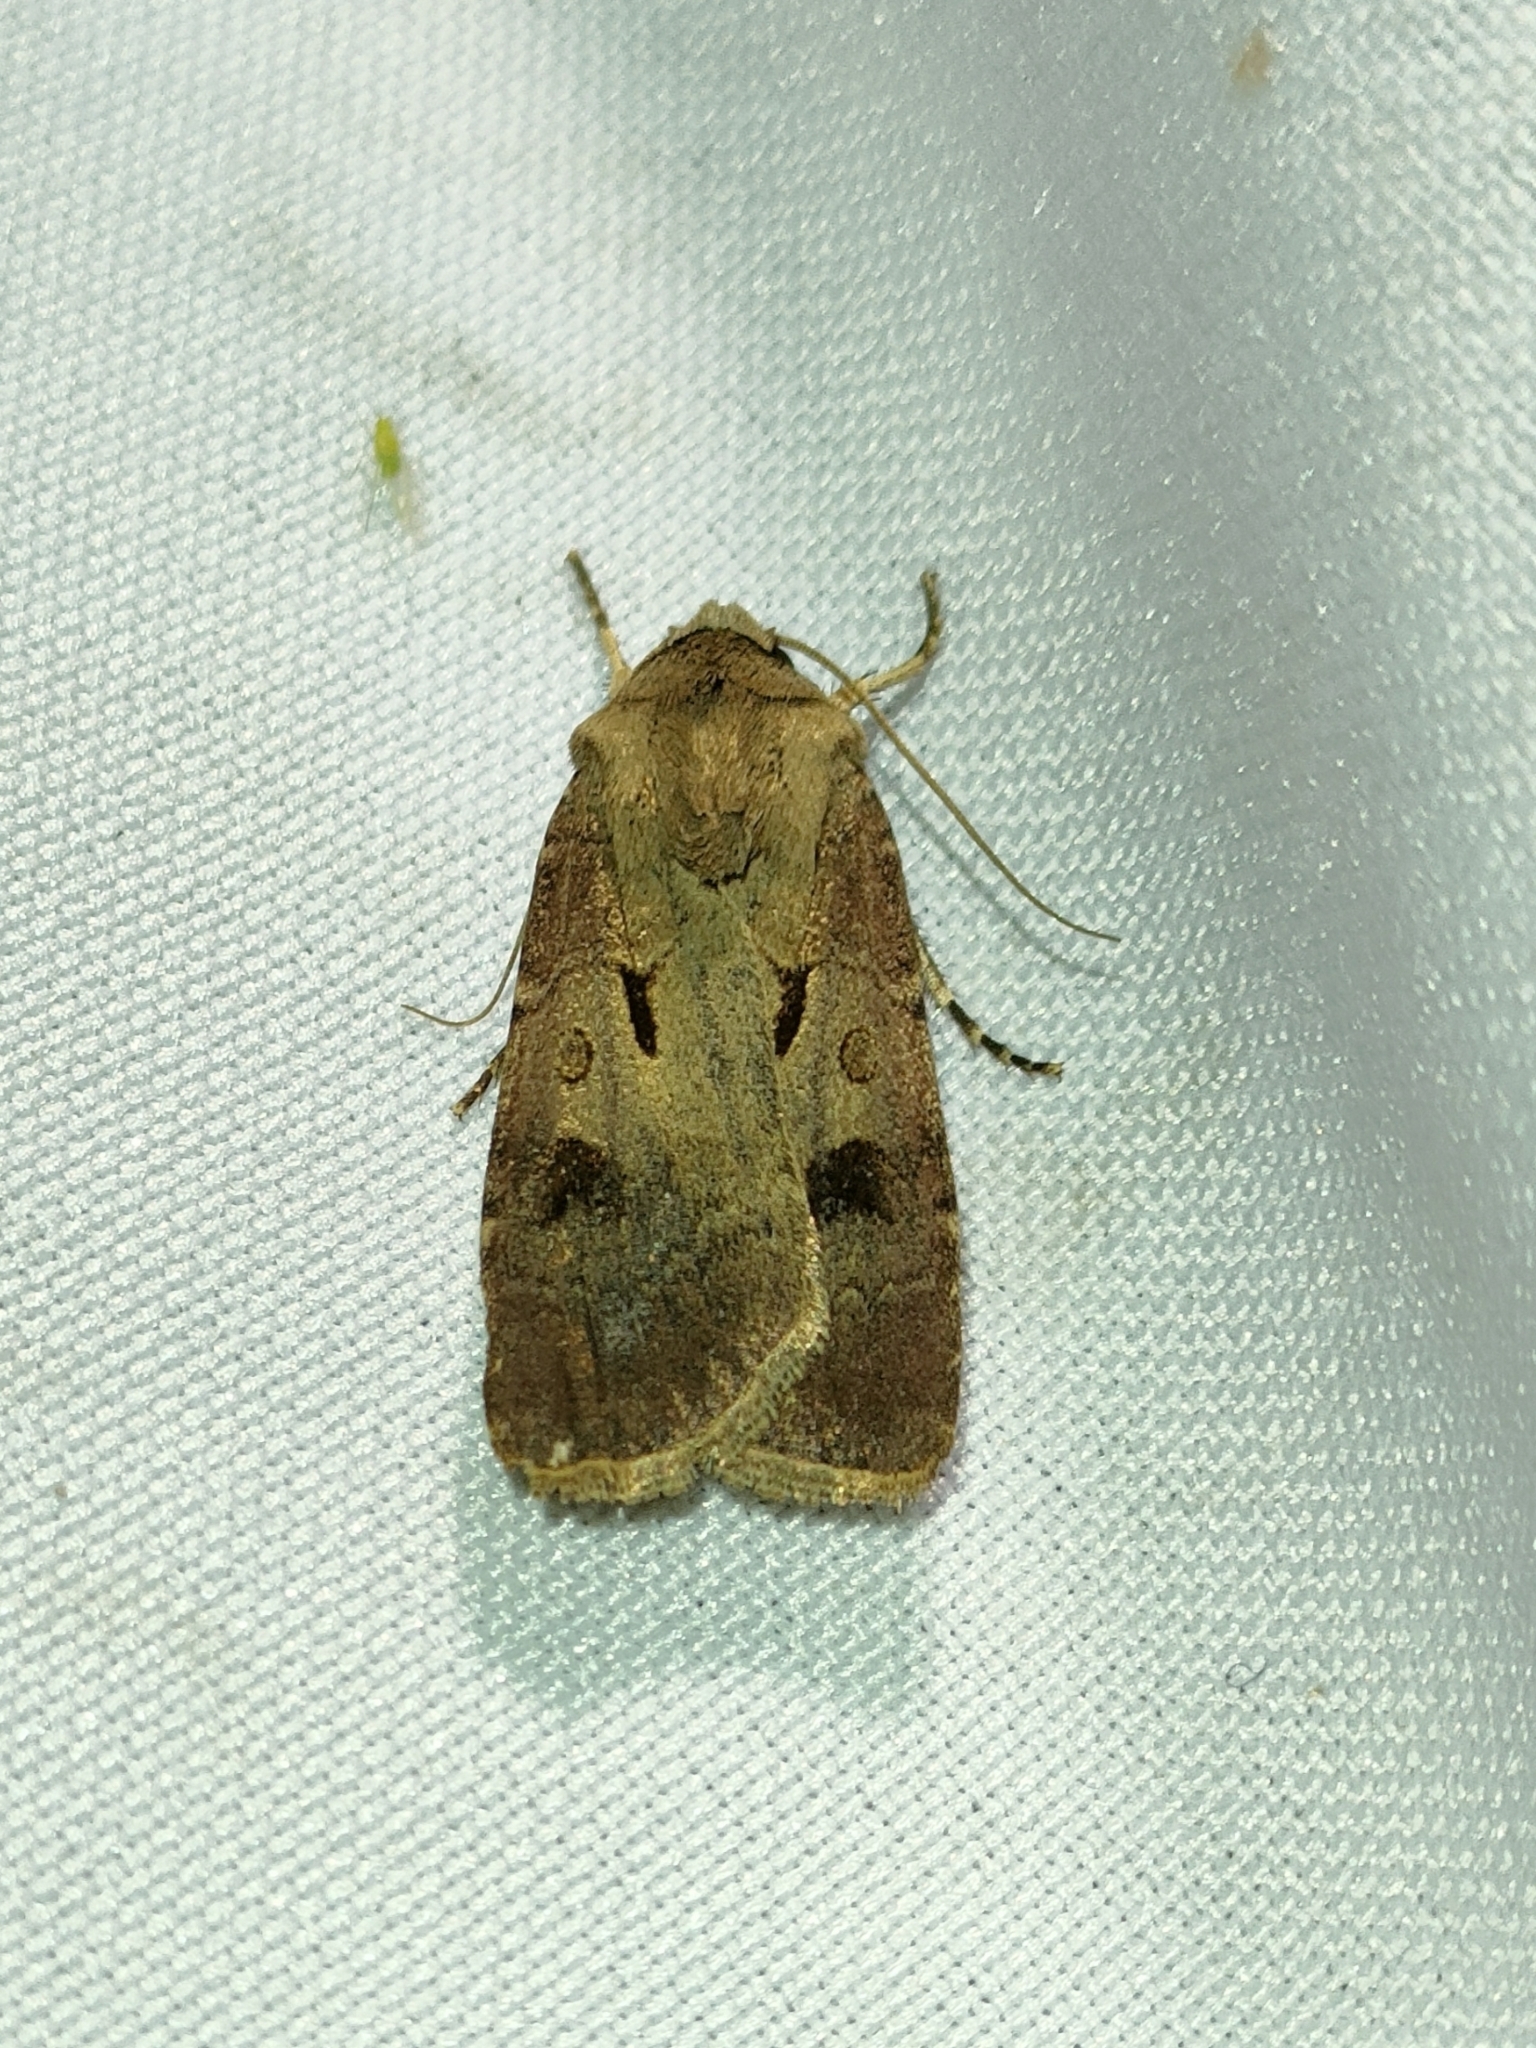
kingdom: Animalia
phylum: Arthropoda
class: Insecta
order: Lepidoptera
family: Noctuidae
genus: Agrotis
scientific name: Agrotis exclamationis
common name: Heart and dart
